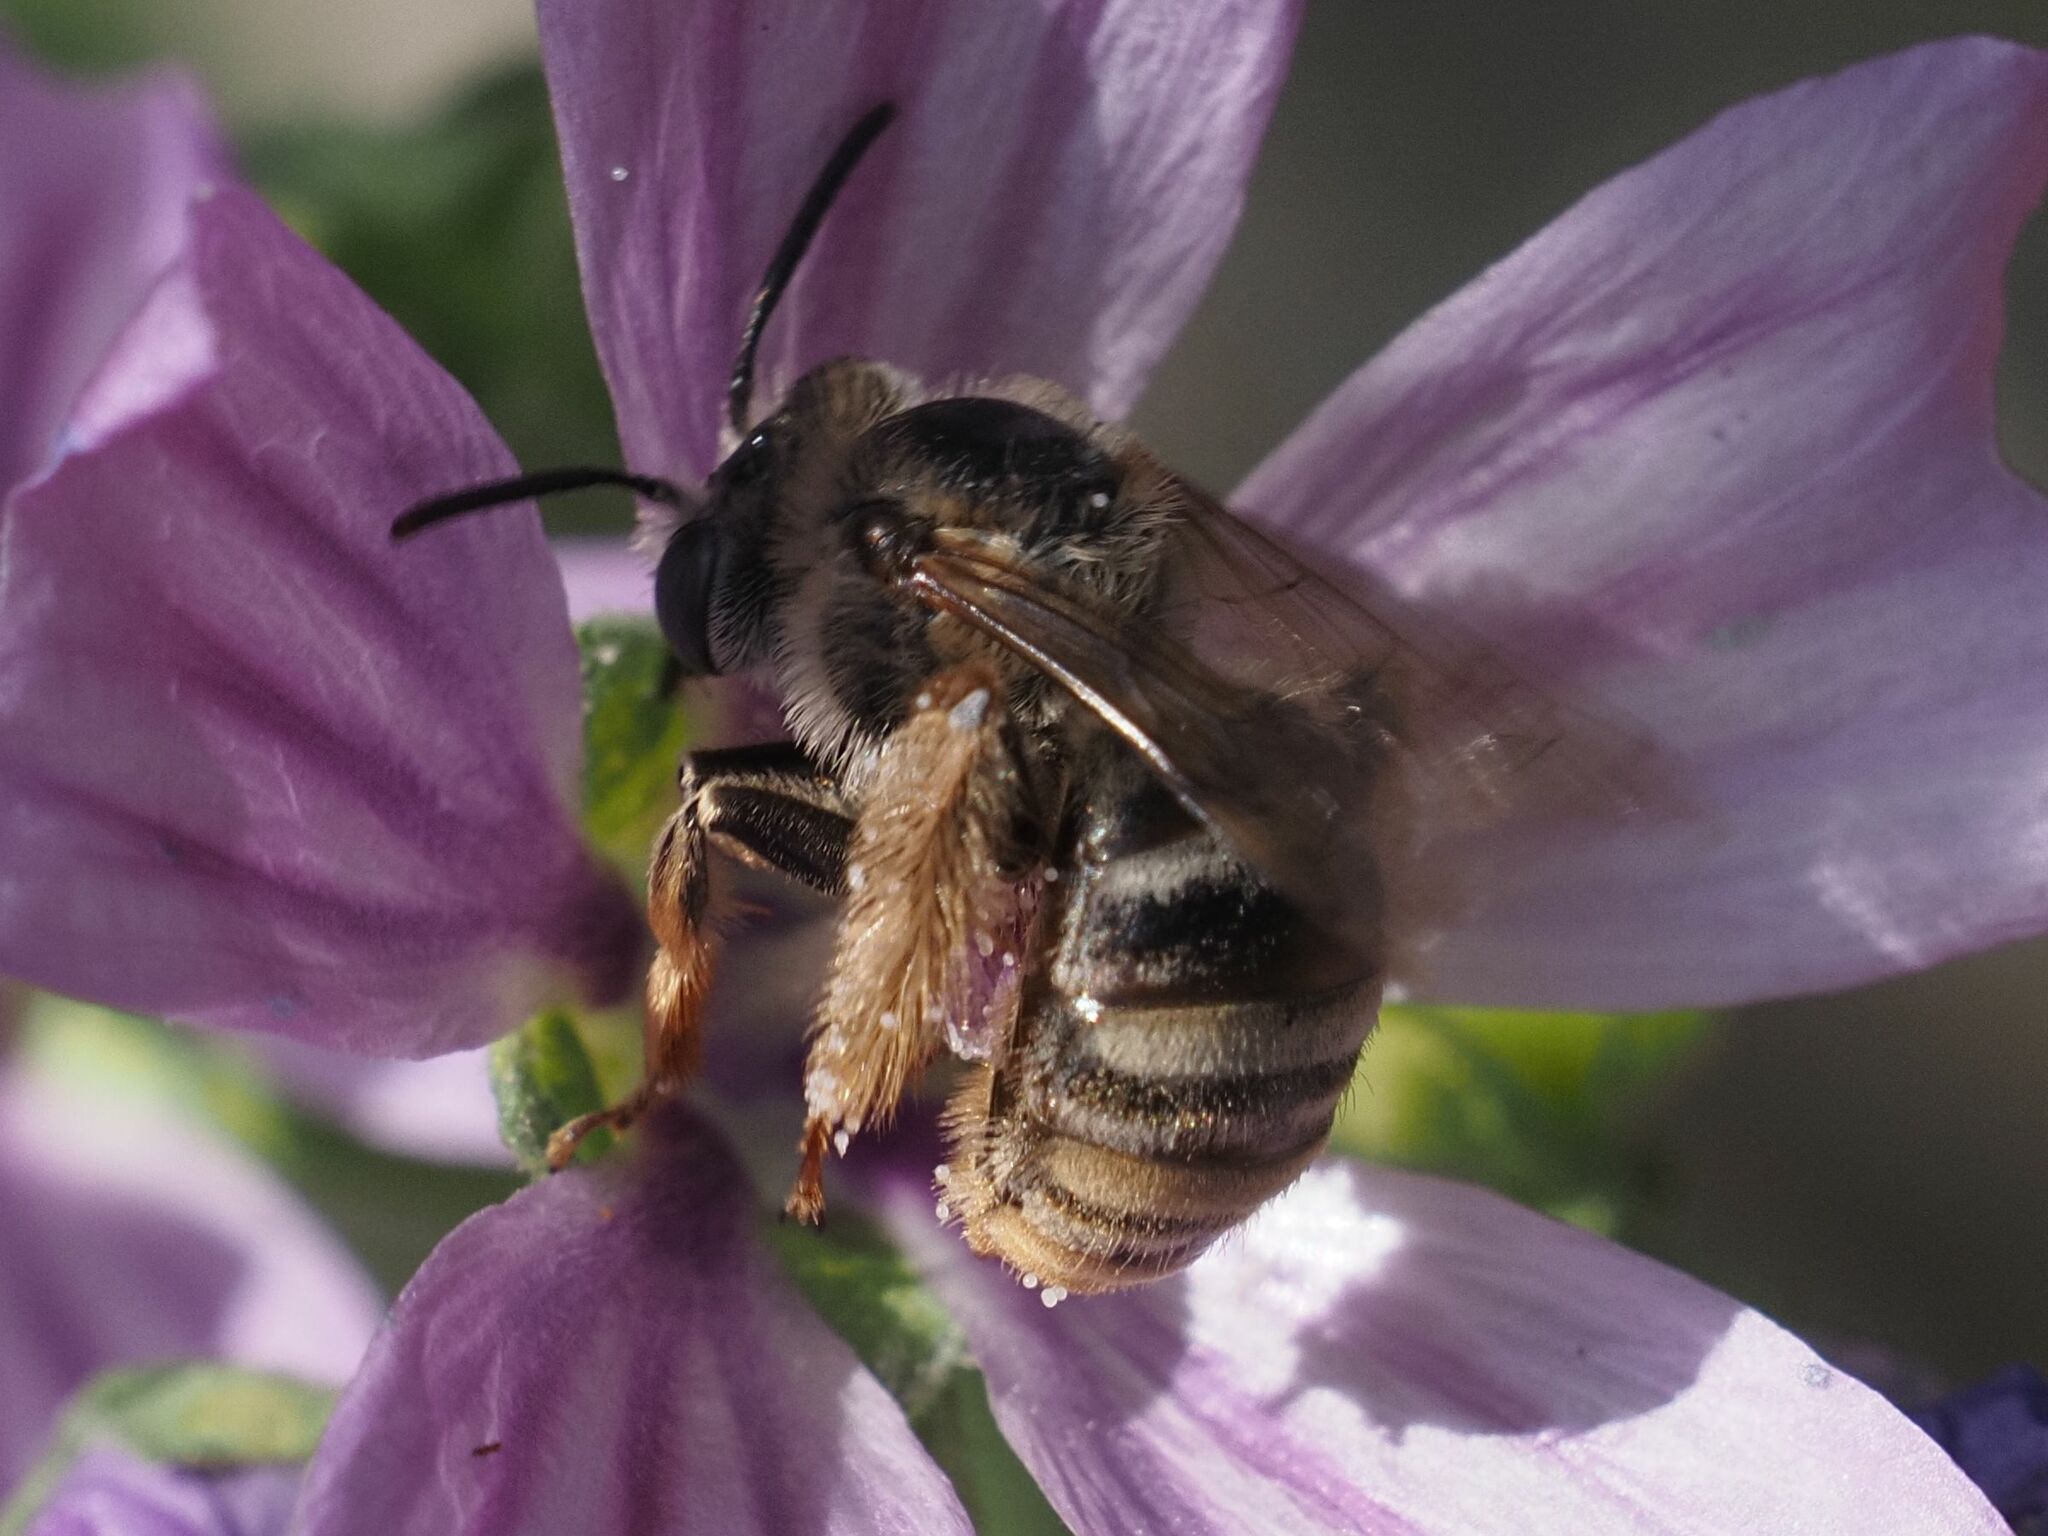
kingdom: Animalia
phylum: Arthropoda
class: Insecta
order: Hymenoptera
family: Apidae
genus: Tetralonia
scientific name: Tetralonia malvae
